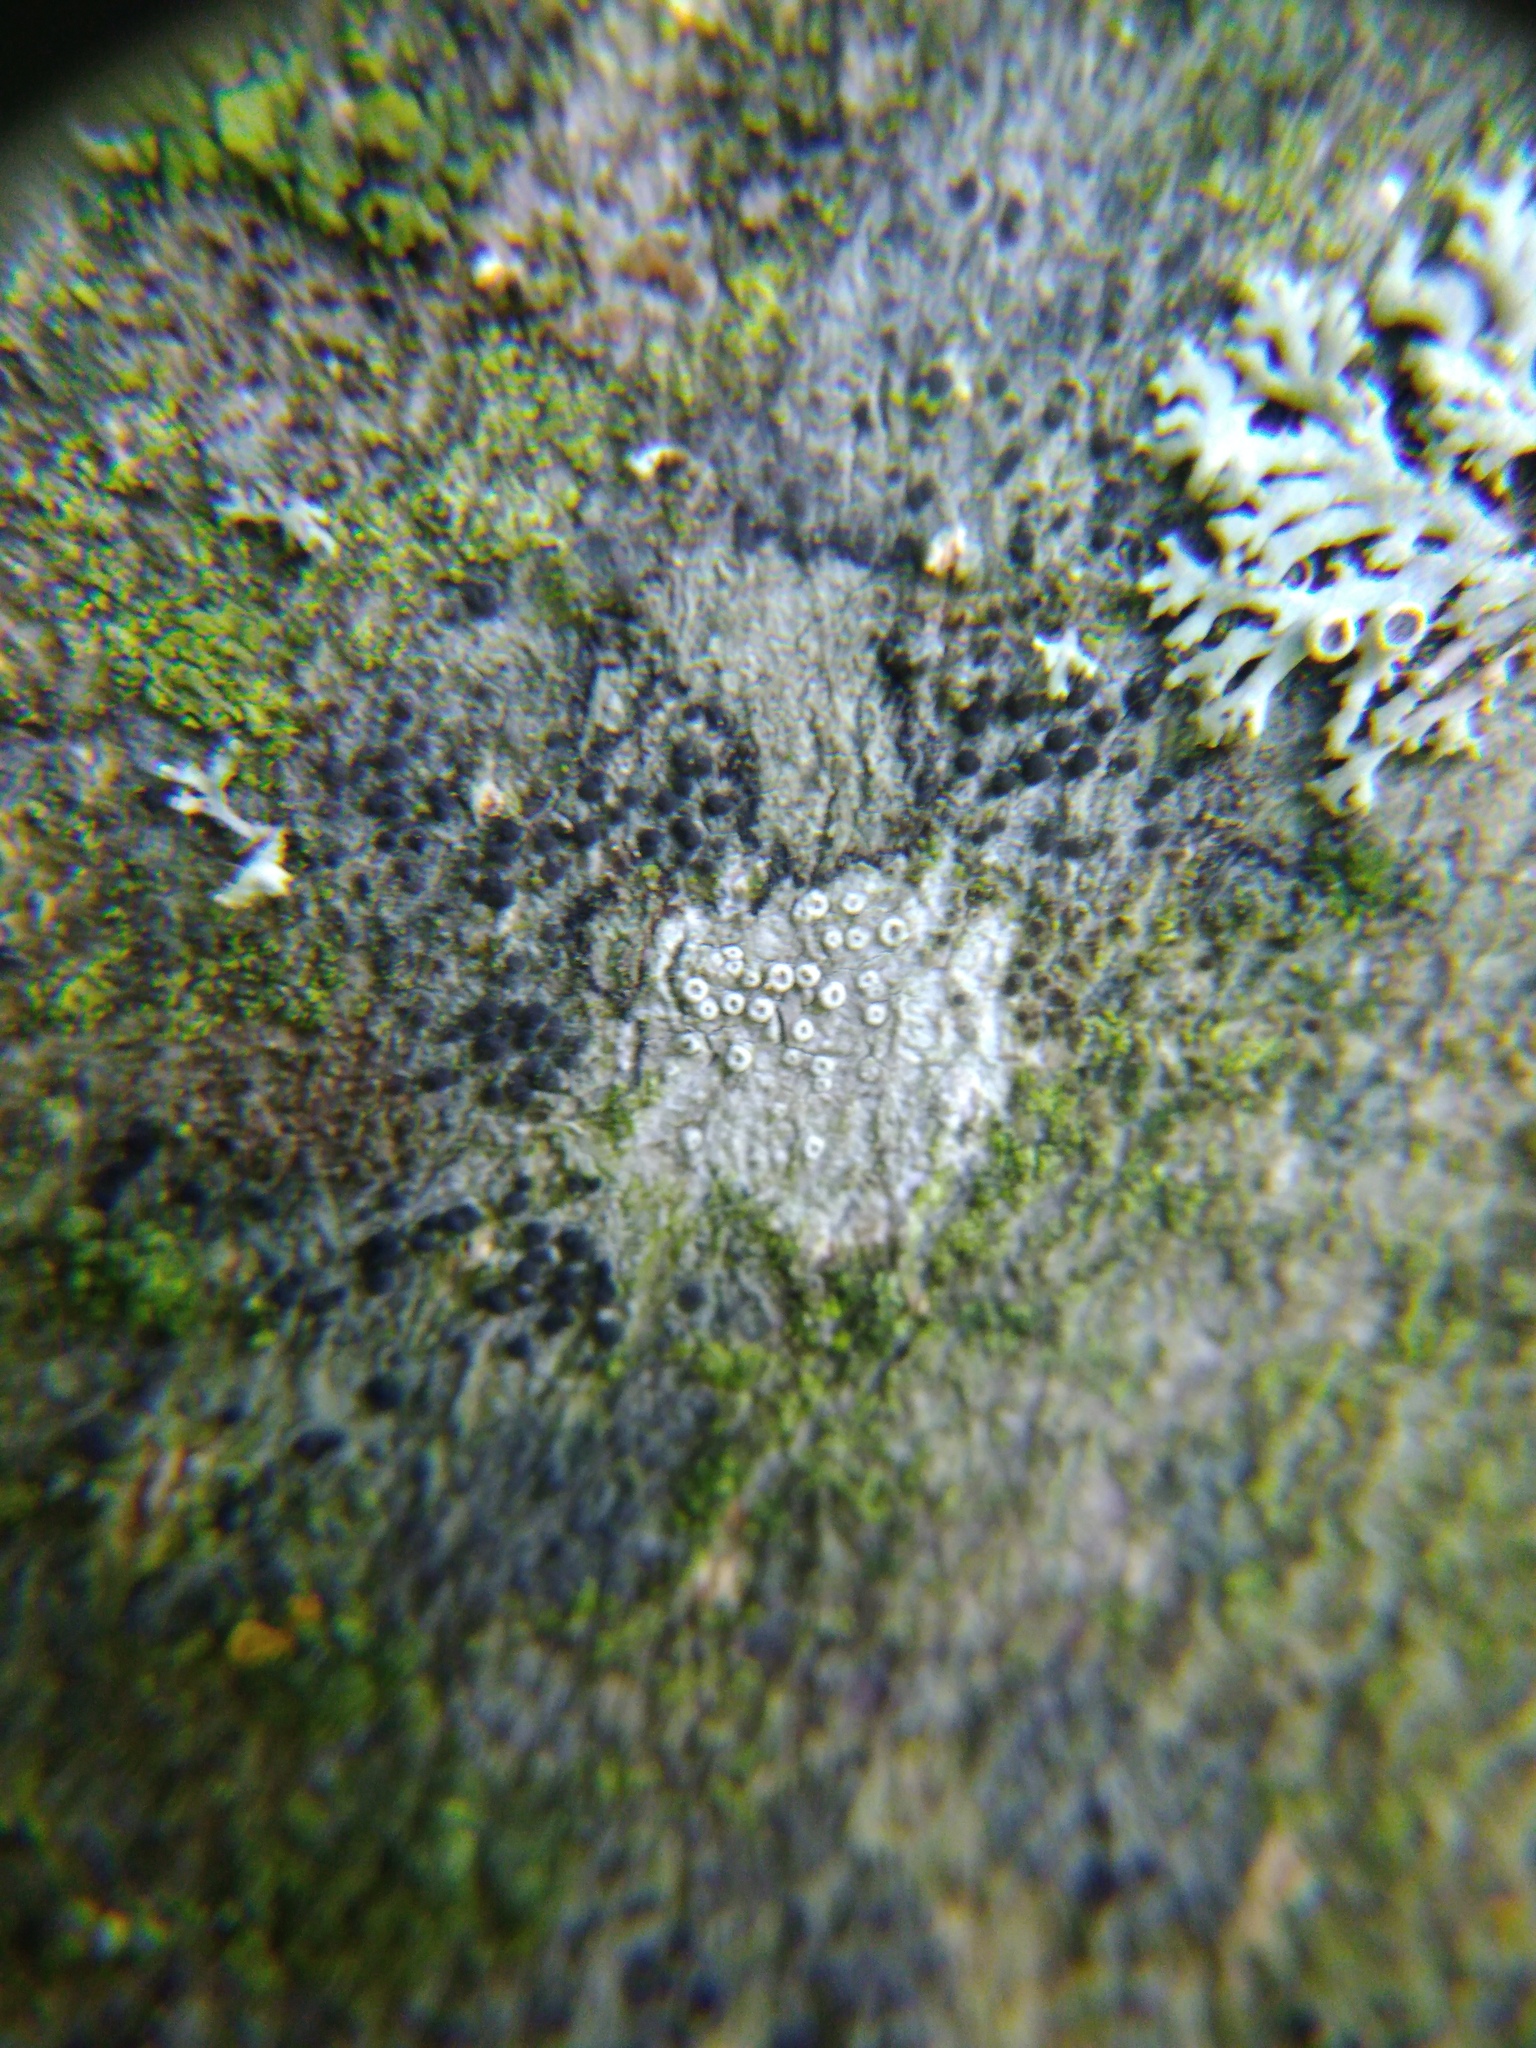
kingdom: Fungi
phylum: Ascomycota
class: Lecanoromycetes
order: Lecanorales
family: Lecanoraceae
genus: Glaucomaria
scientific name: Glaucomaria carpinea
